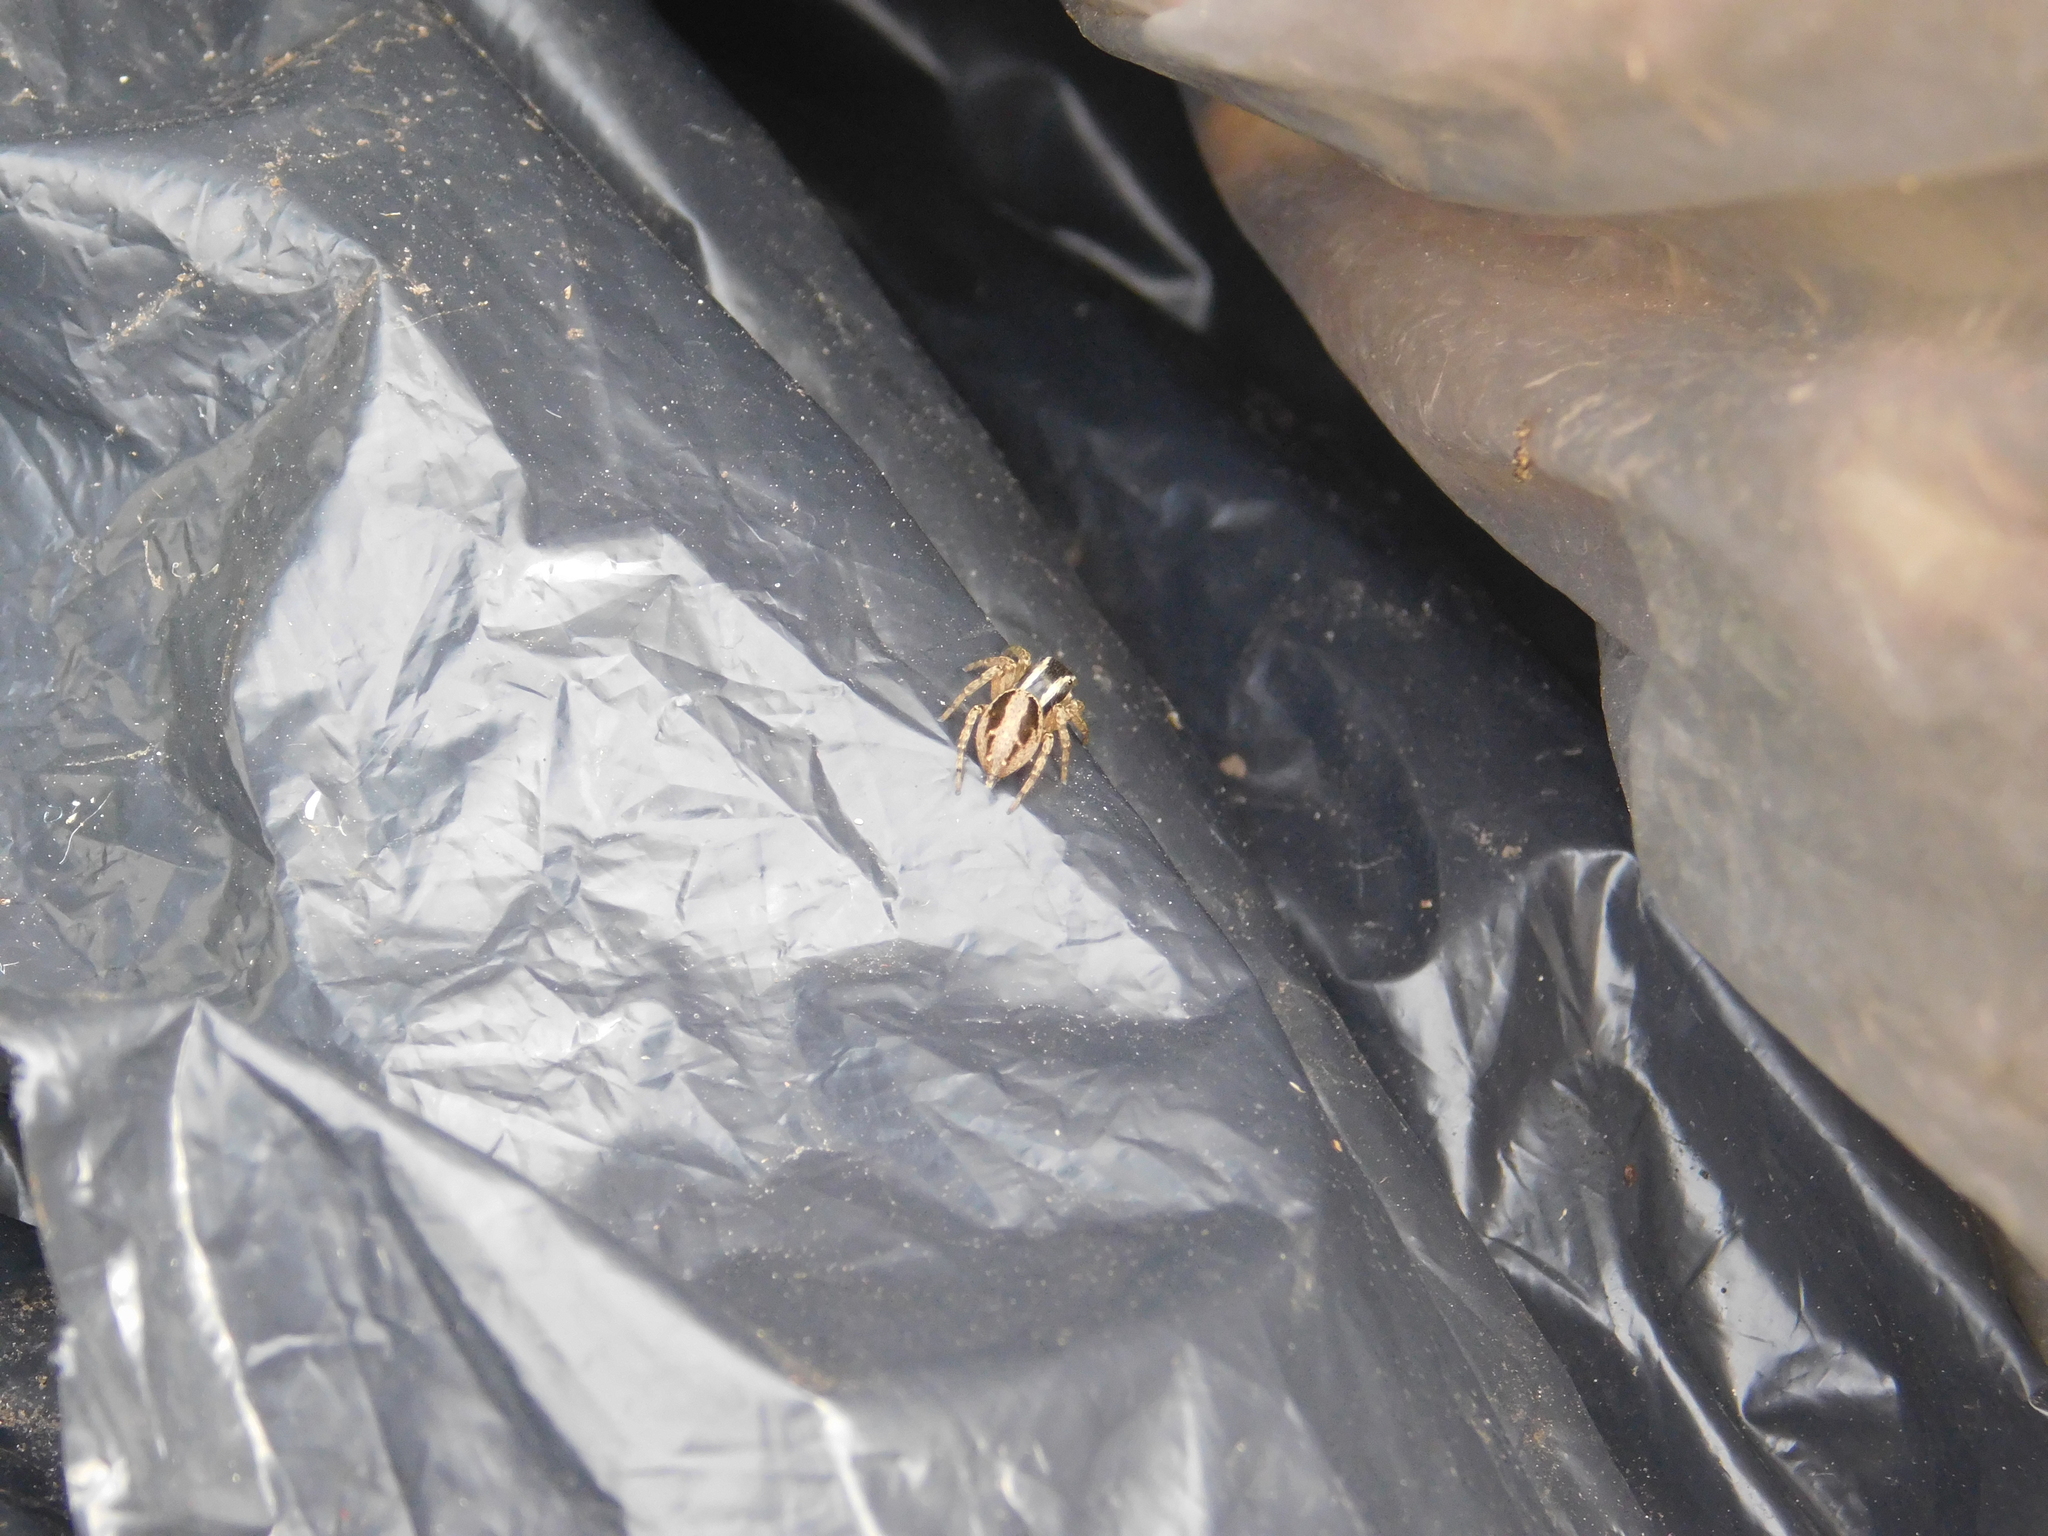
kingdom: Animalia
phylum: Arthropoda
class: Arachnida
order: Araneae
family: Salticidae
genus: Aphirape
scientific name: Aphirape
